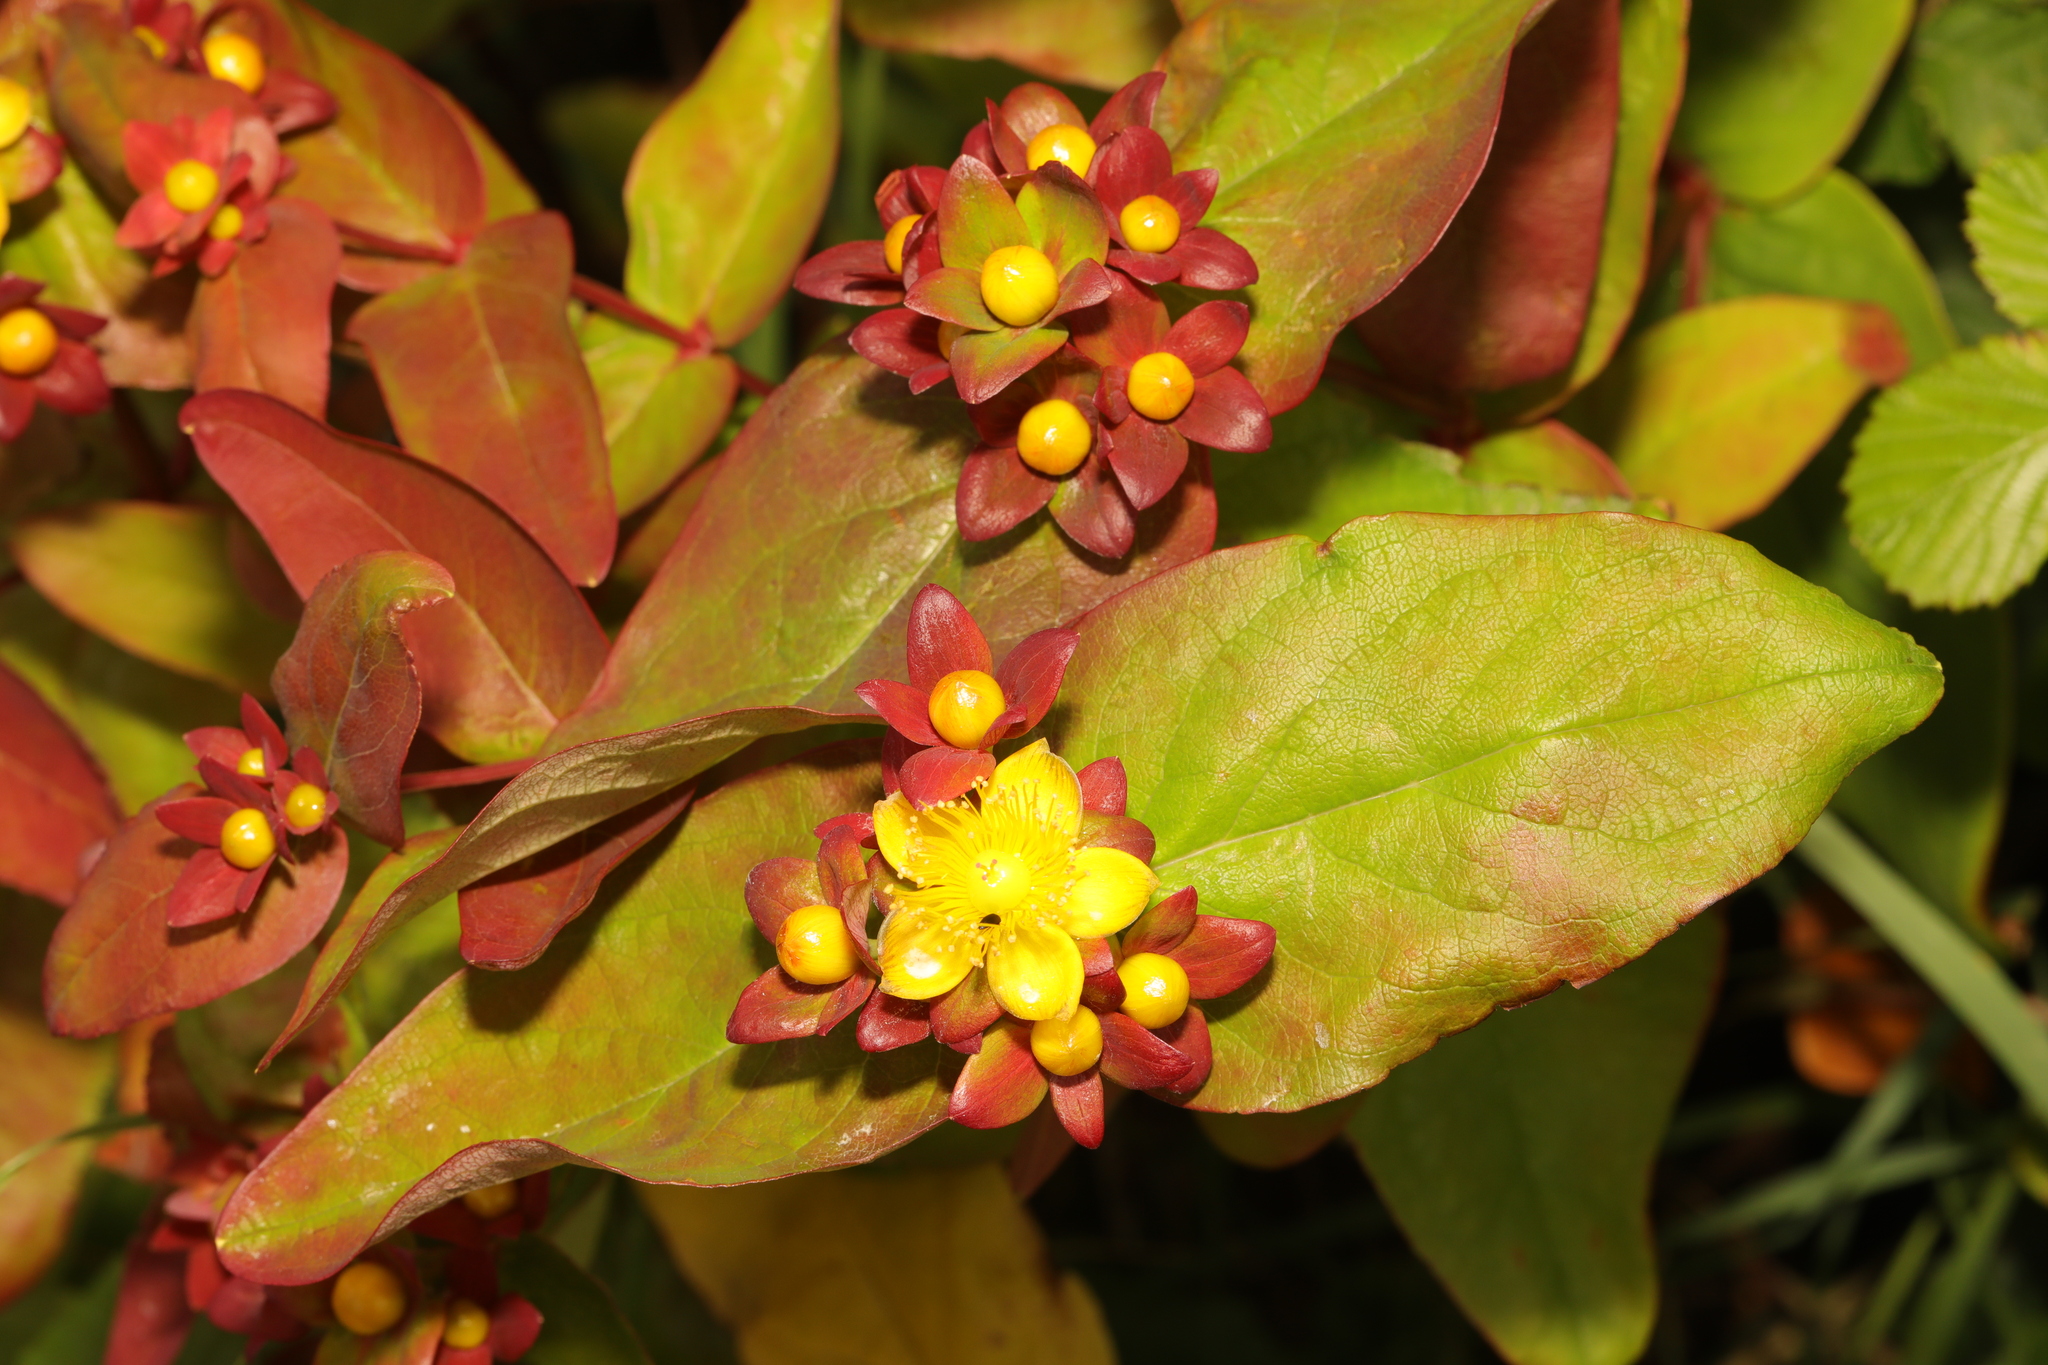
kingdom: Plantae
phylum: Tracheophyta
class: Magnoliopsida
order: Malpighiales
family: Hypericaceae
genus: Hypericum
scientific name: Hypericum androsaemum
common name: Sweet-amber
